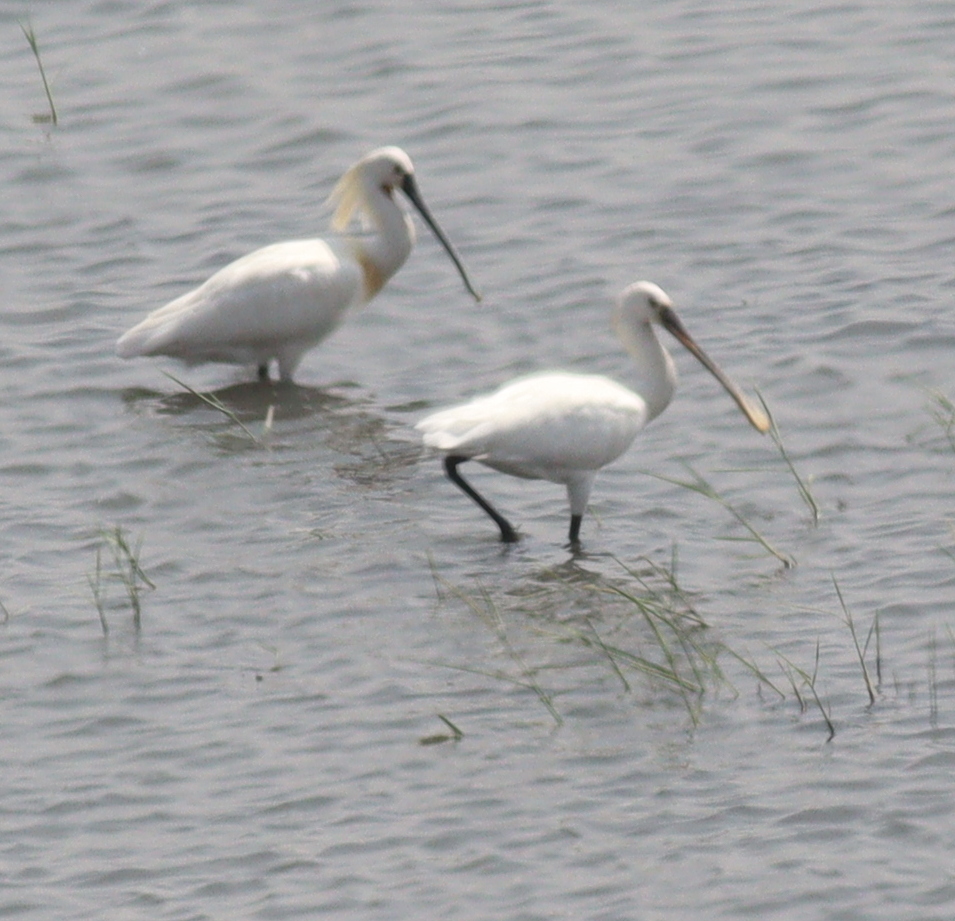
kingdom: Animalia
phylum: Chordata
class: Aves
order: Pelecaniformes
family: Threskiornithidae
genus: Platalea
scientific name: Platalea leucorodia
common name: Eurasian spoonbill
